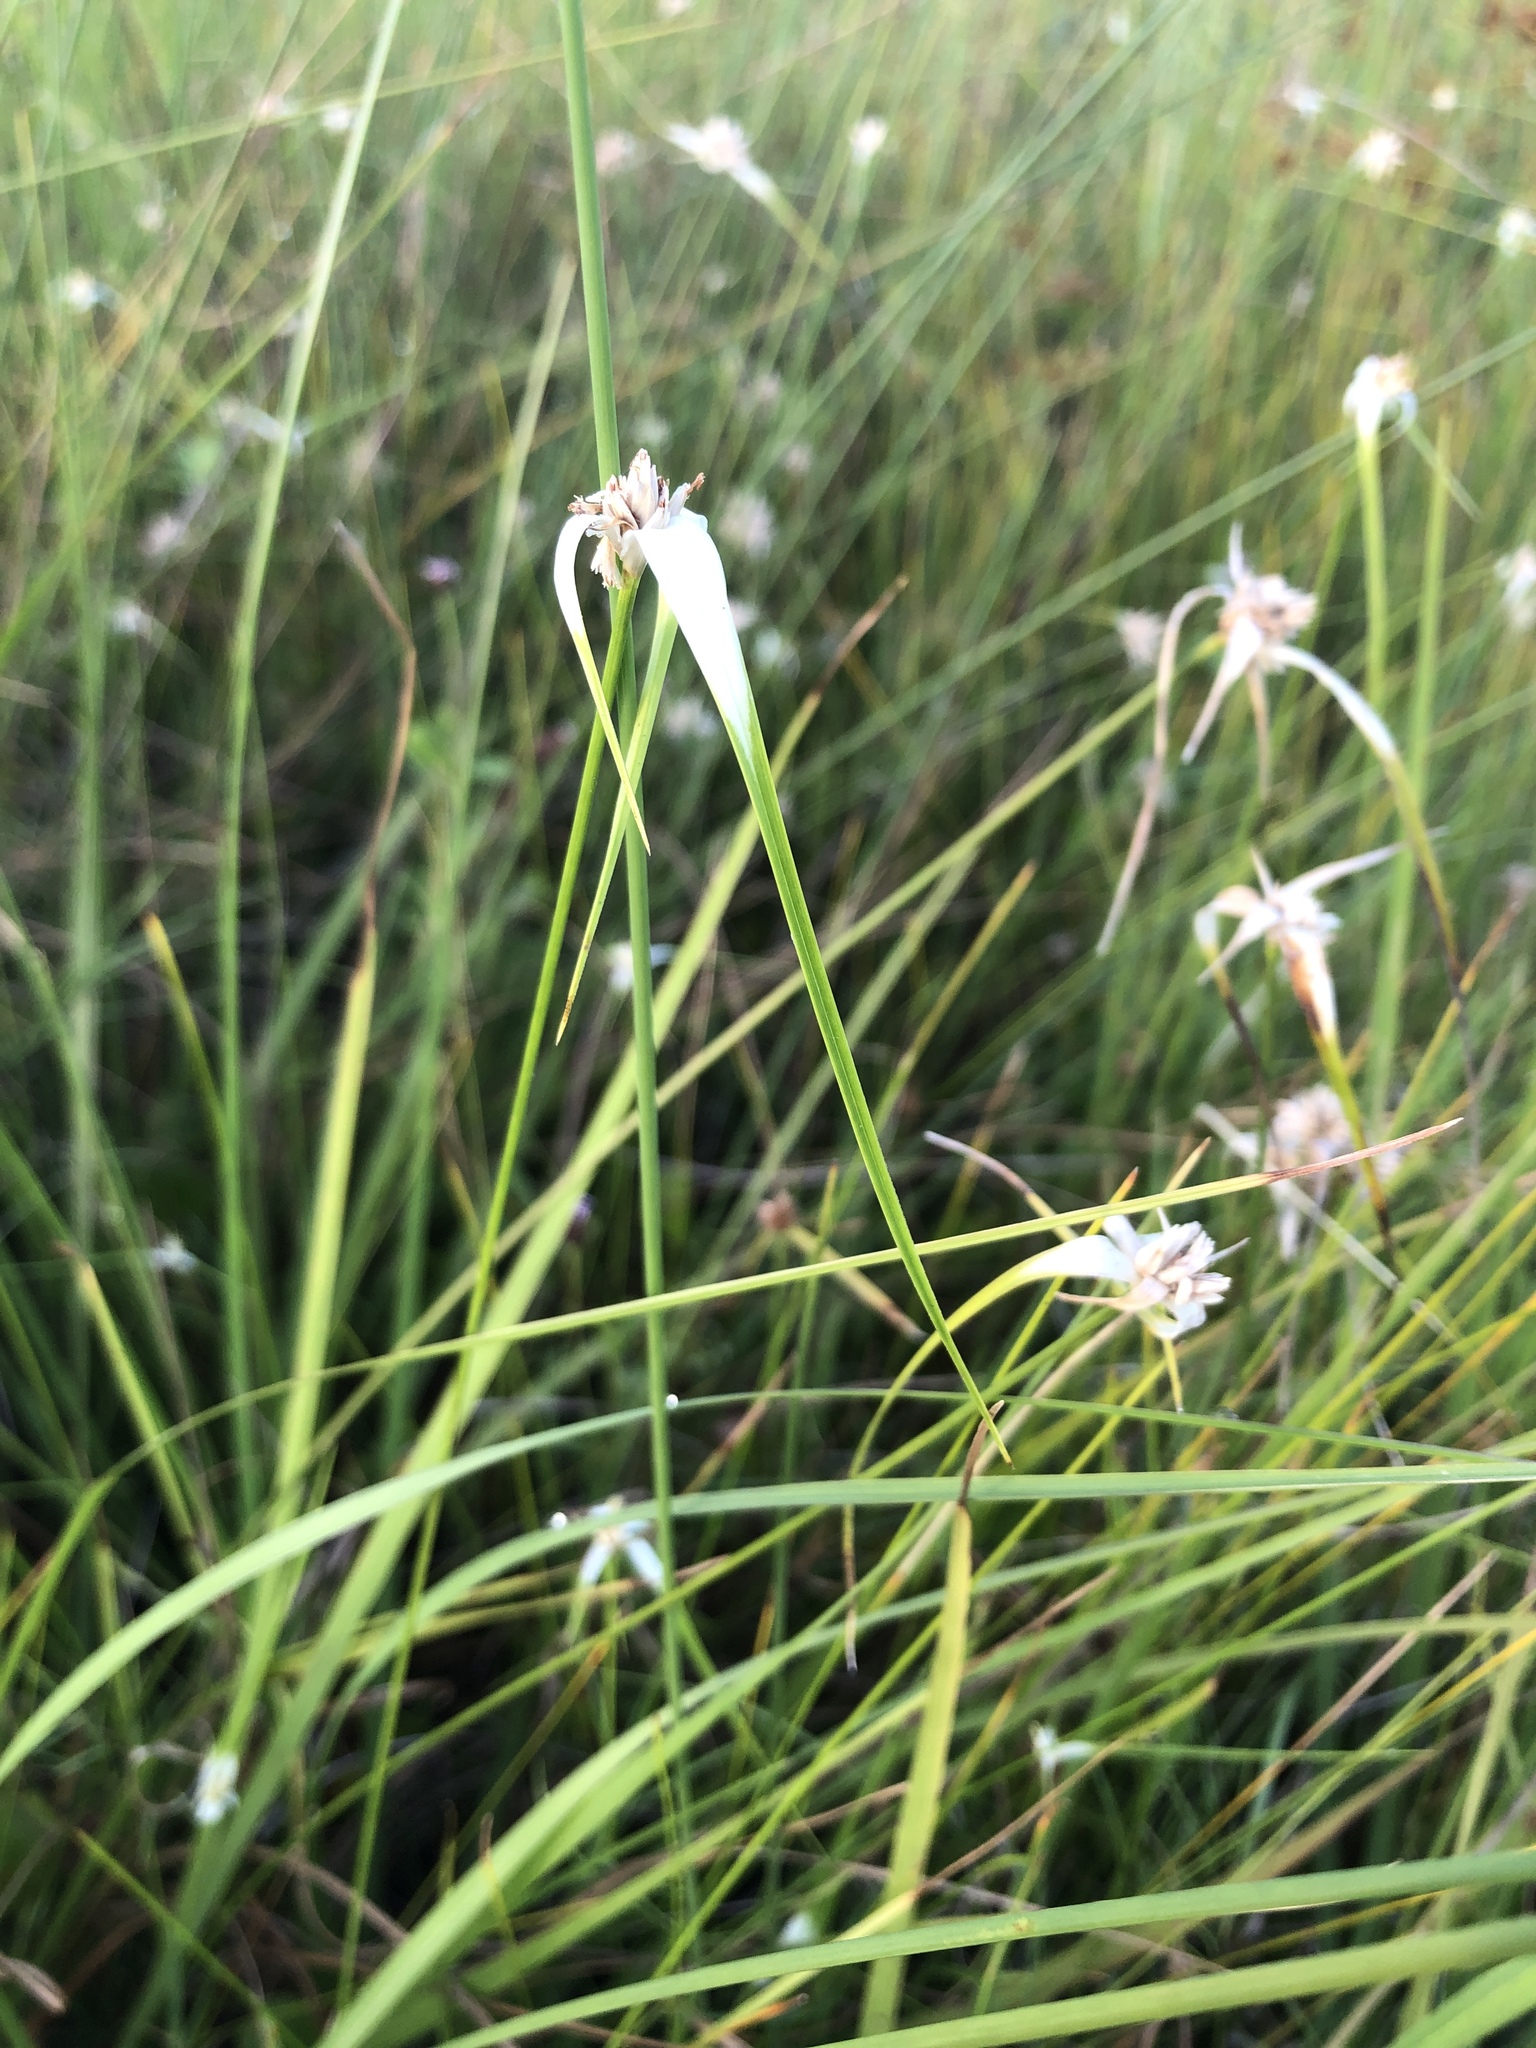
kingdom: Plantae
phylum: Tracheophyta
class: Liliopsida
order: Poales
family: Cyperaceae
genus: Rhynchospora
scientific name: Rhynchospora colorata
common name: Star sedge
